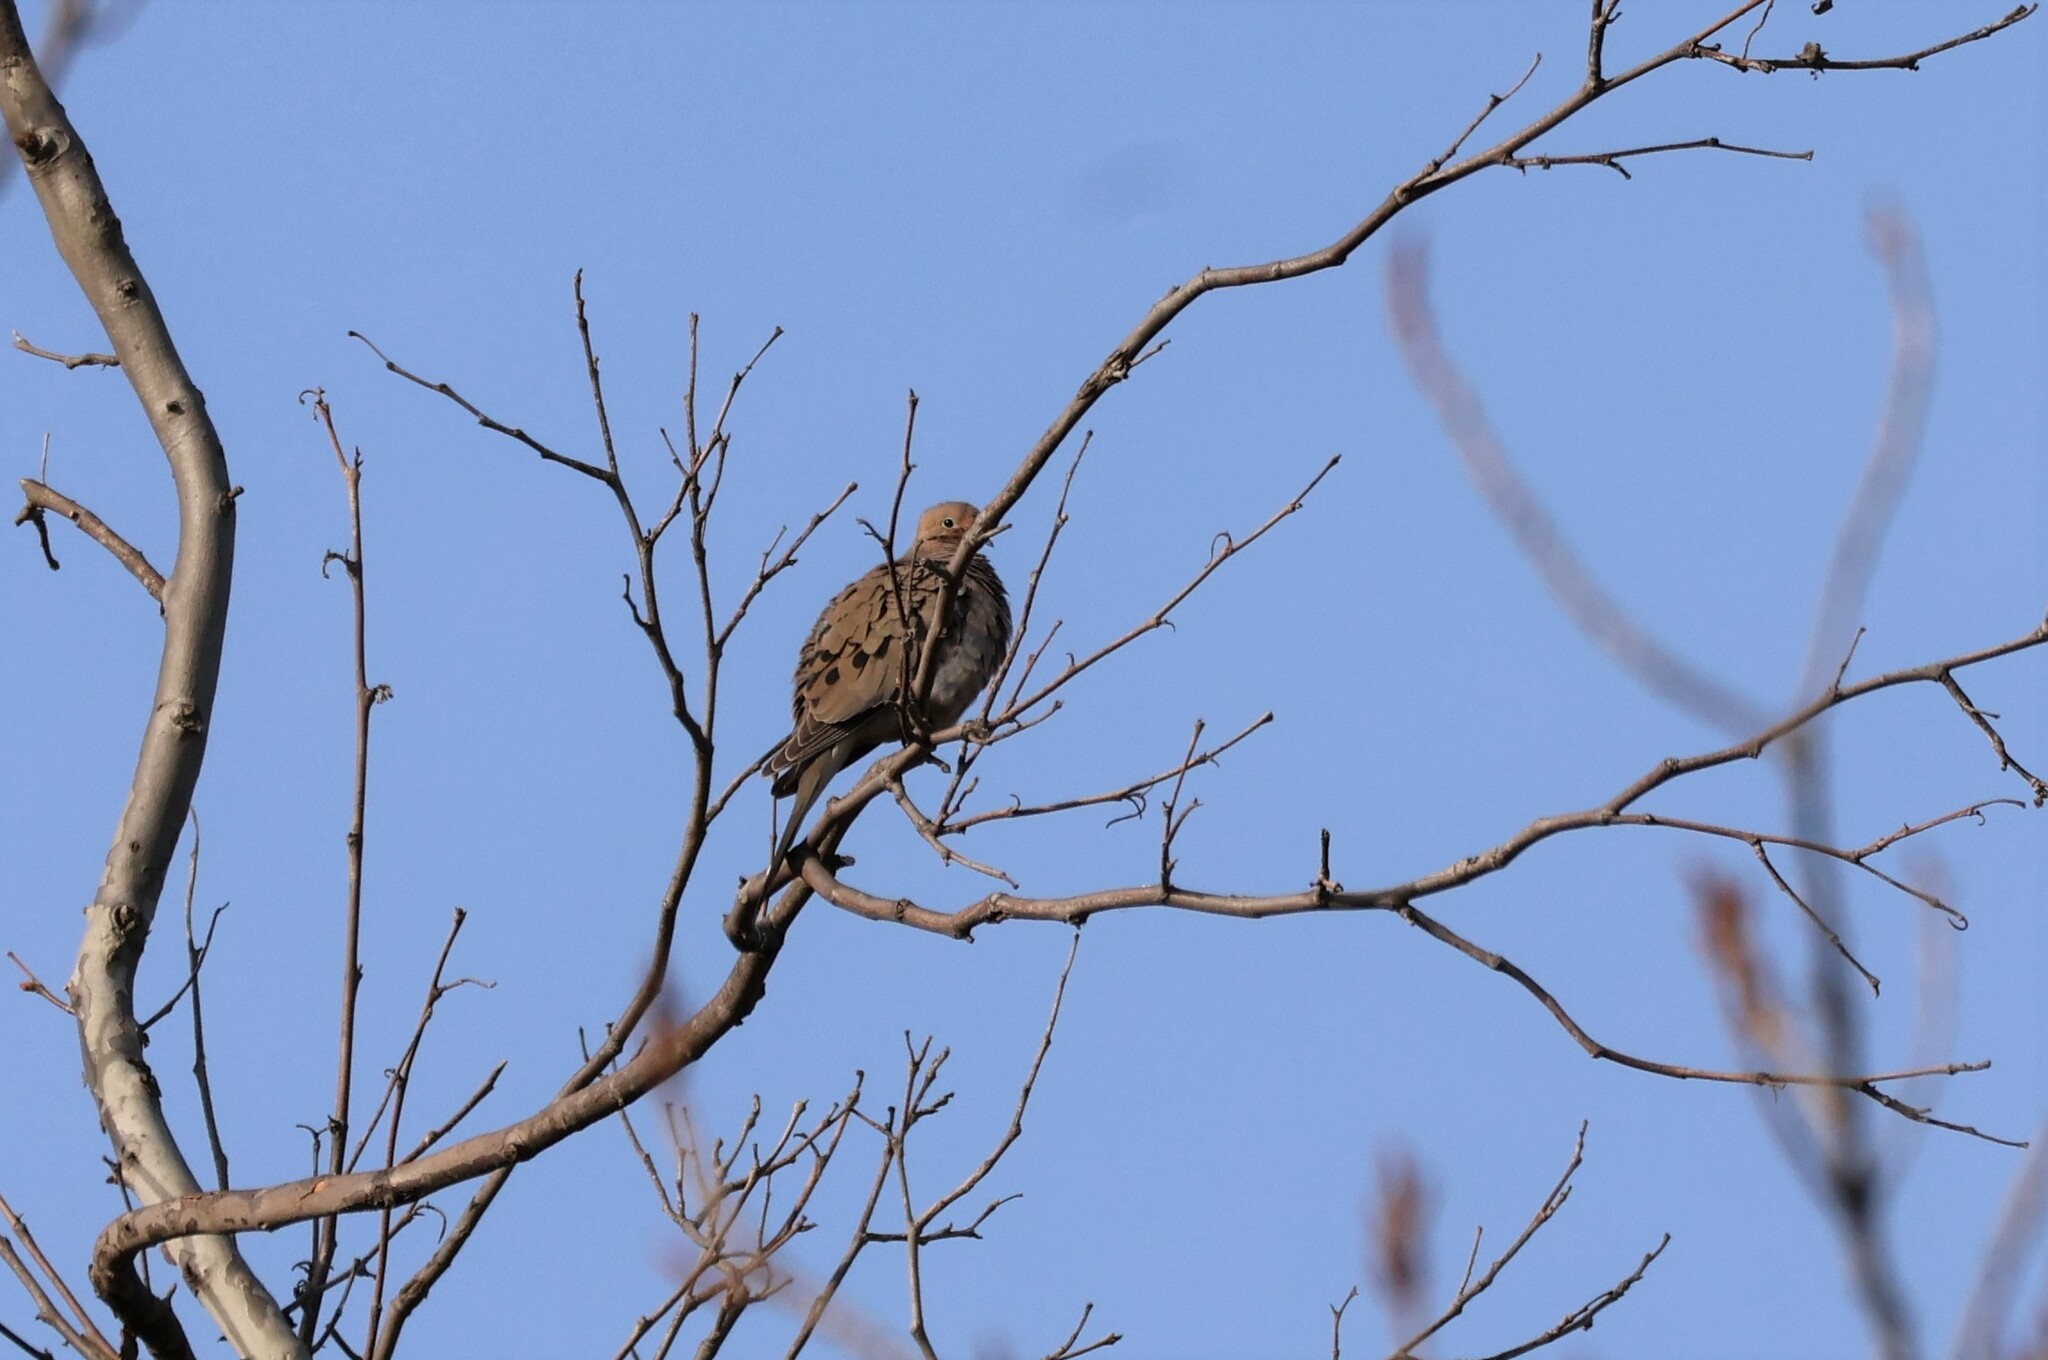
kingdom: Animalia
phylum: Chordata
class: Aves
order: Columbiformes
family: Columbidae
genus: Zenaida
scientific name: Zenaida macroura
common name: Mourning dove
